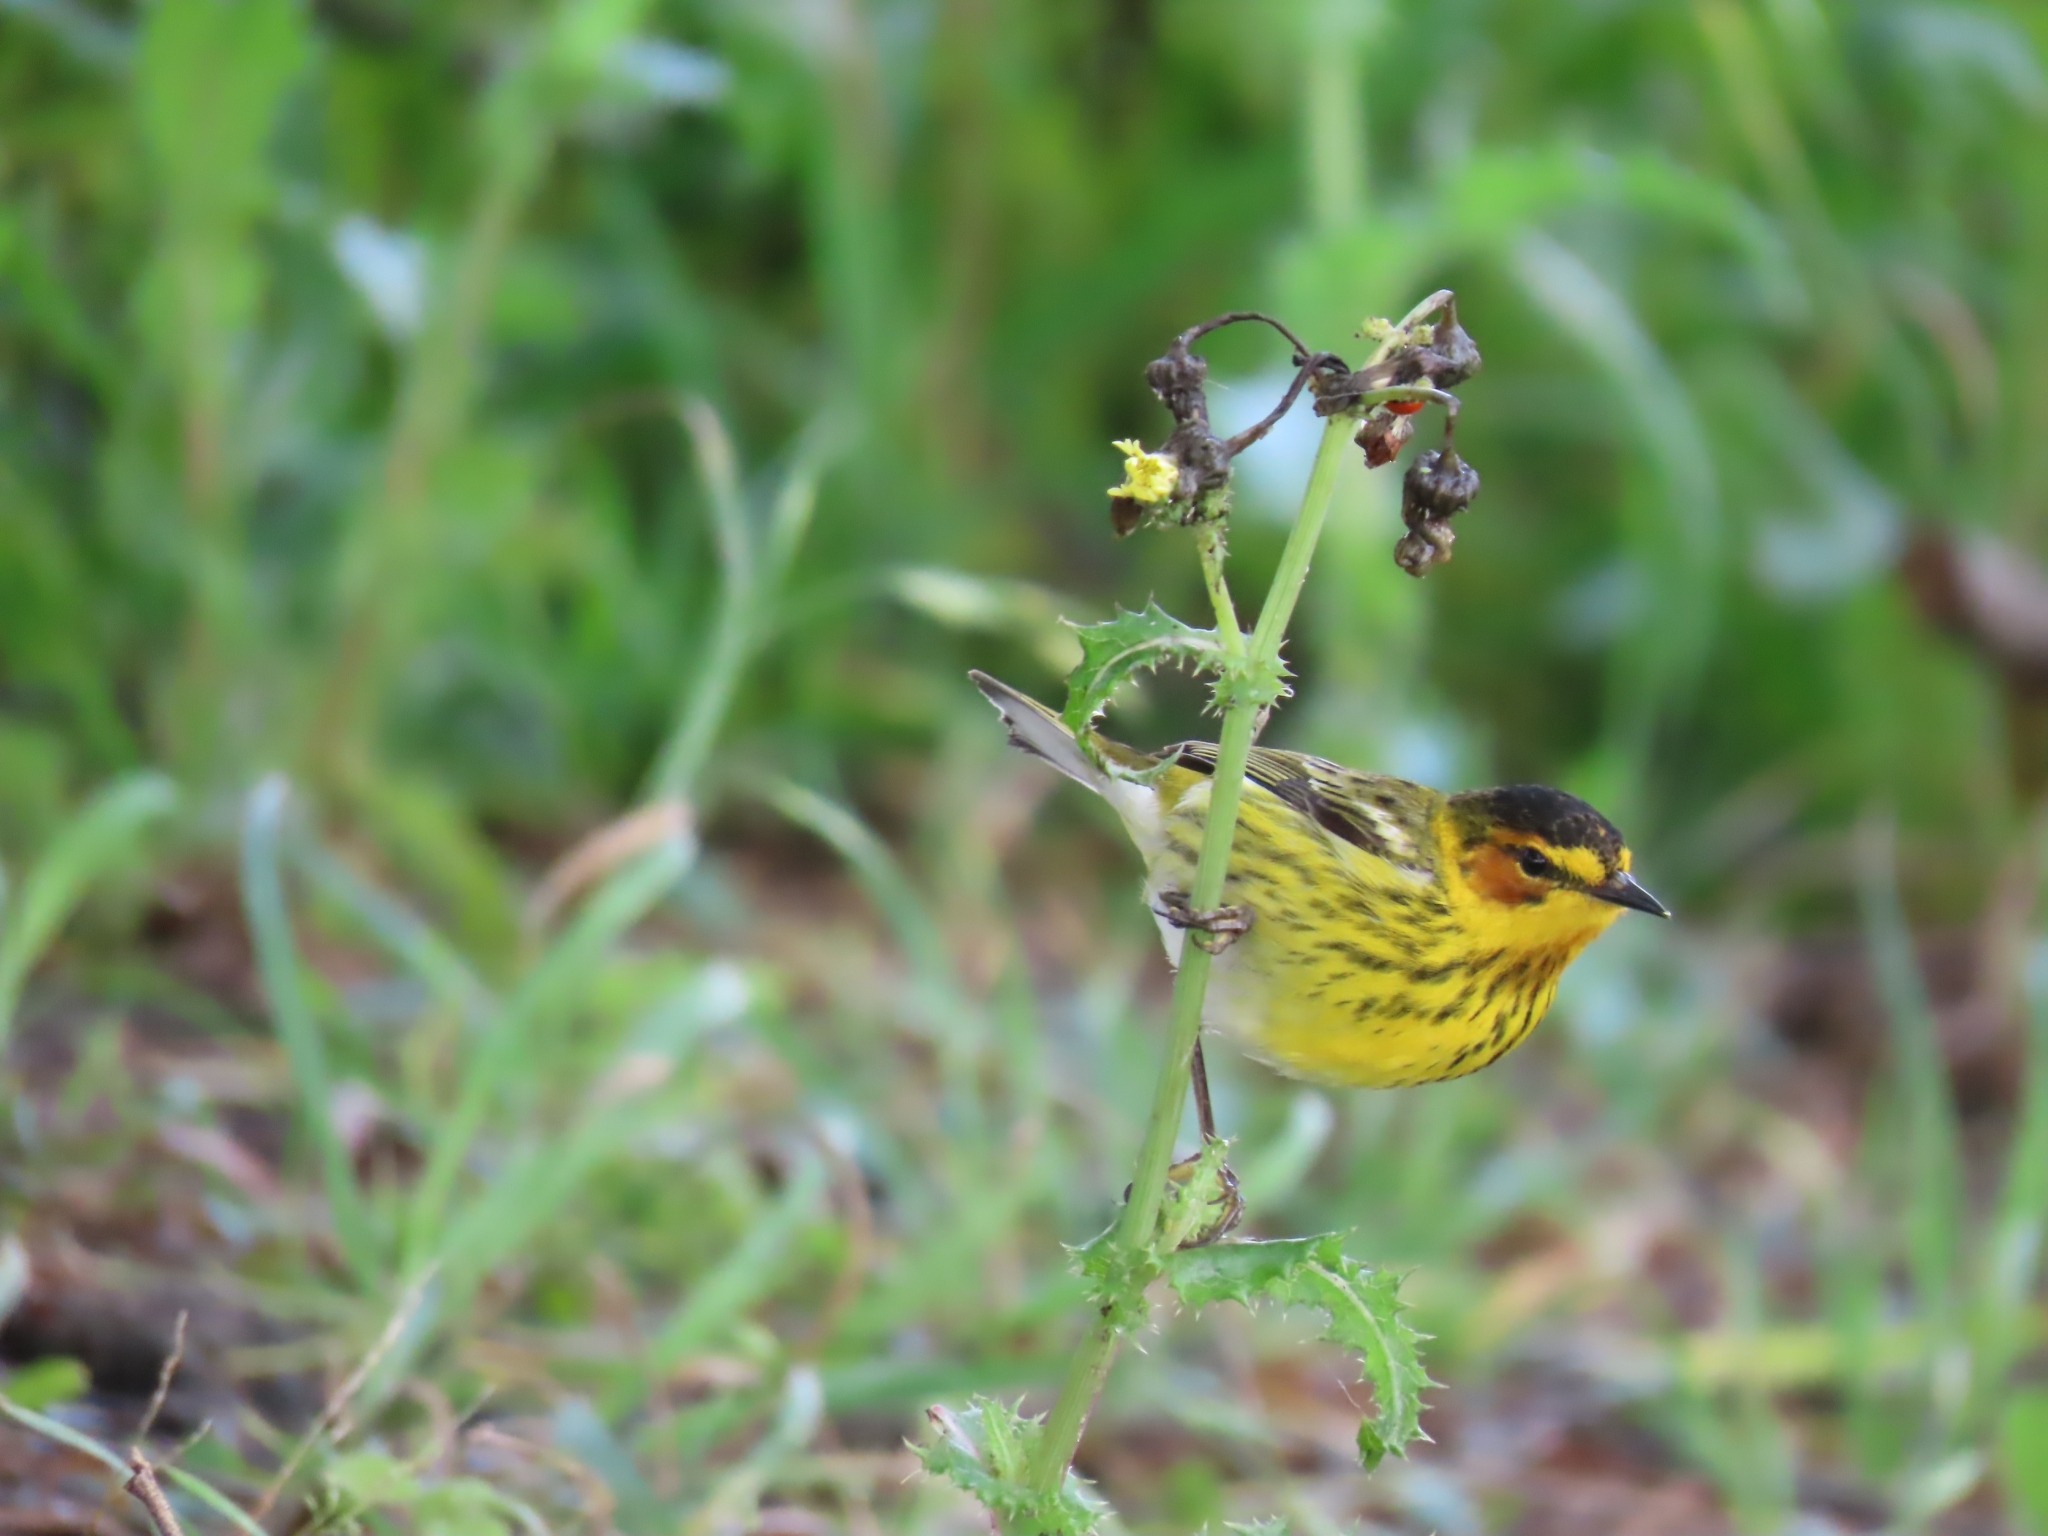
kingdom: Animalia
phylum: Chordata
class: Aves
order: Passeriformes
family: Parulidae
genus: Setophaga
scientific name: Setophaga tigrina
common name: Cape may warbler
